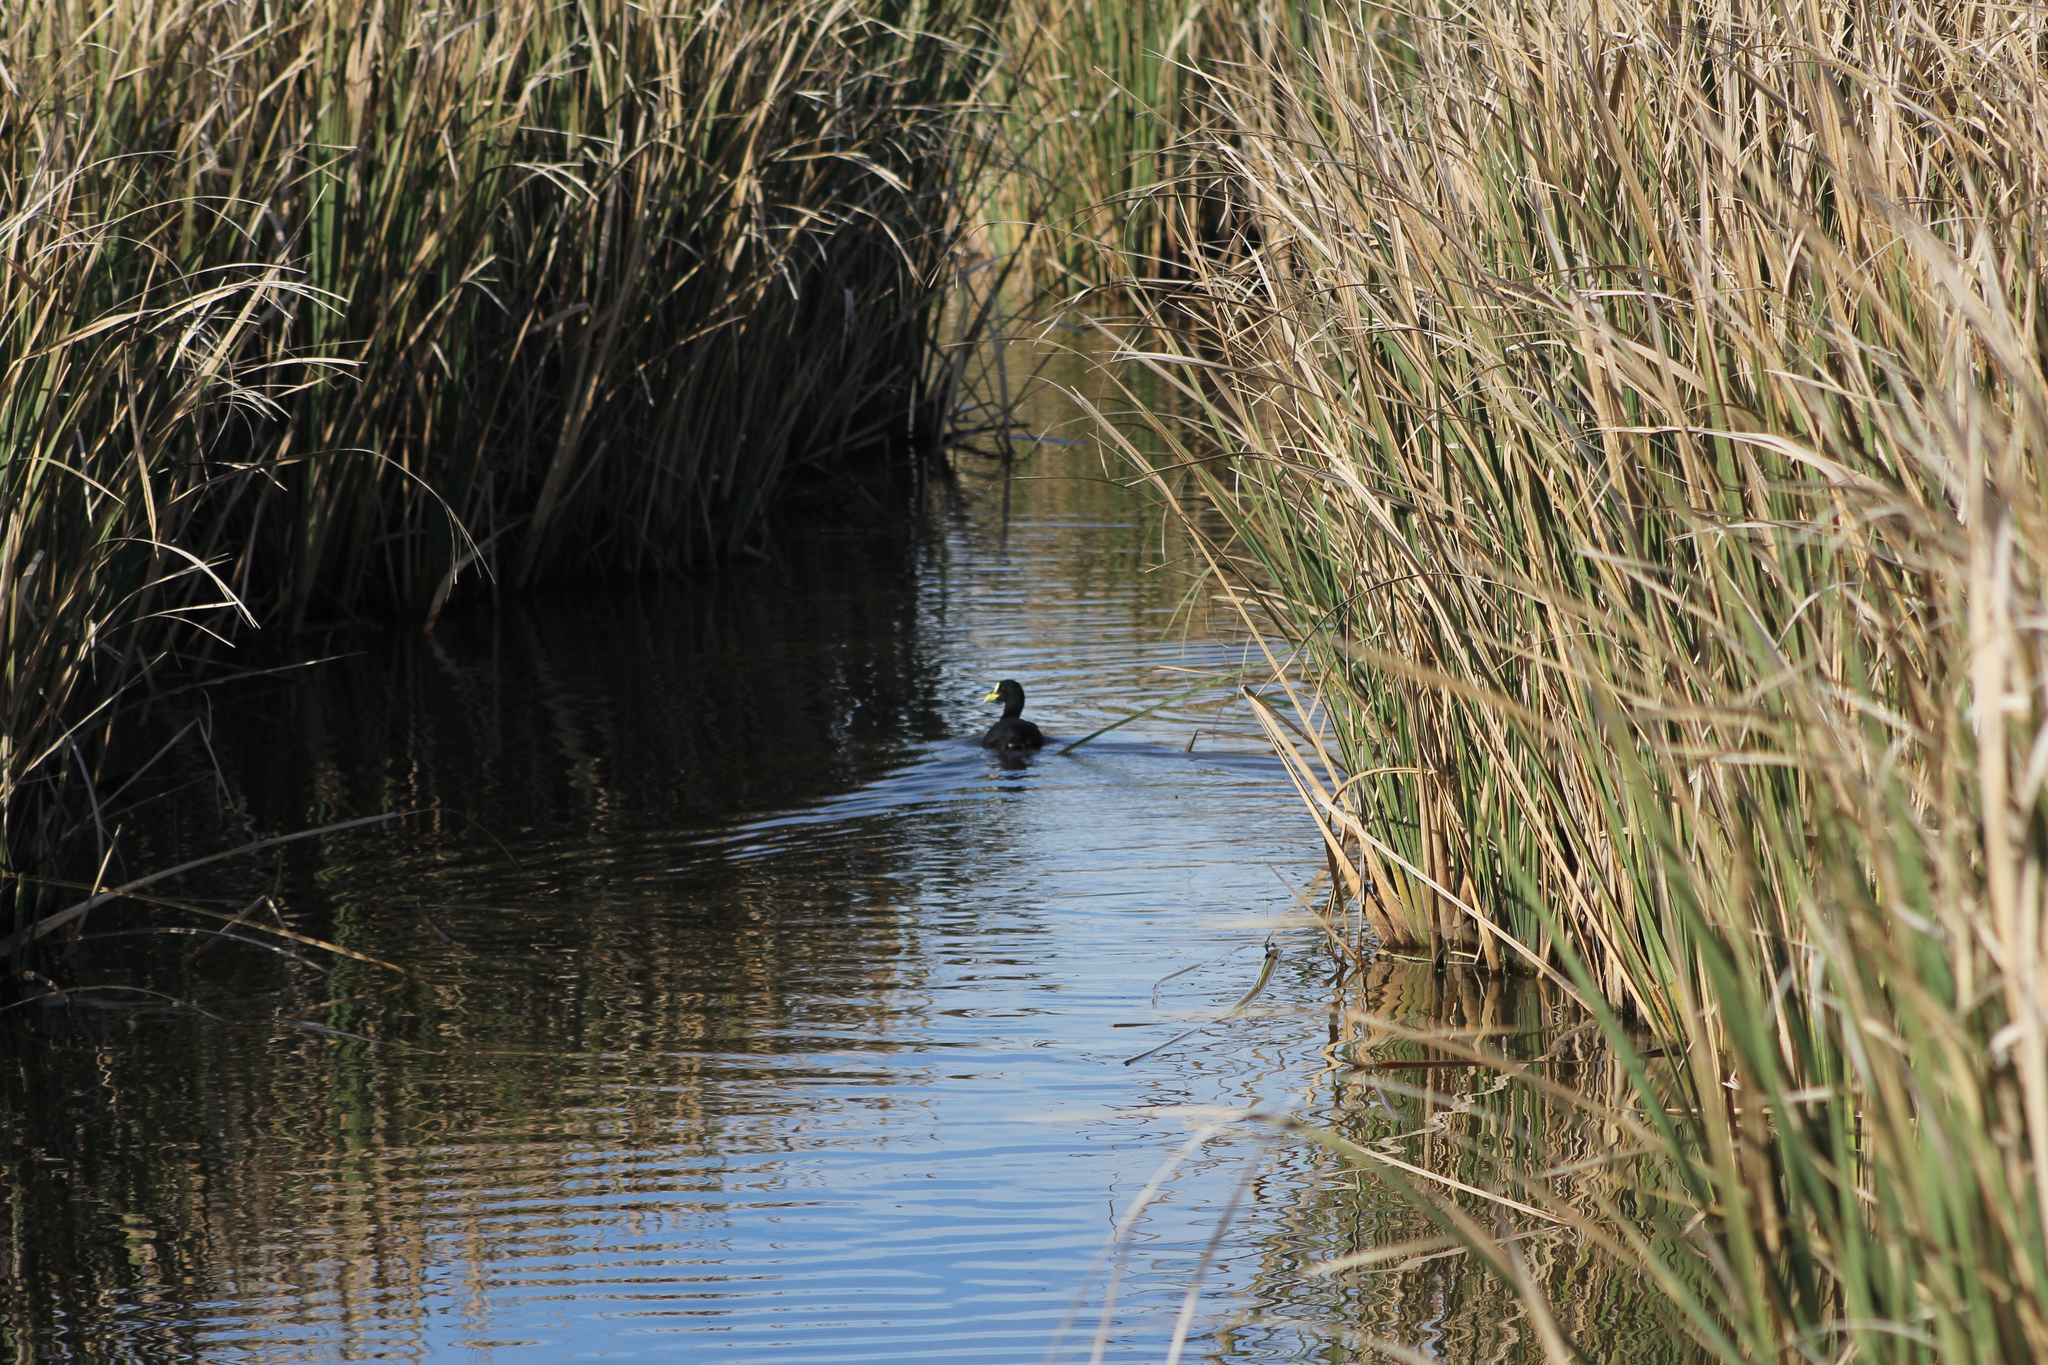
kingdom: Animalia
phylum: Chordata
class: Aves
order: Gruiformes
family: Rallidae
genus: Fulica
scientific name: Fulica armillata
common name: Red-gartered coot
